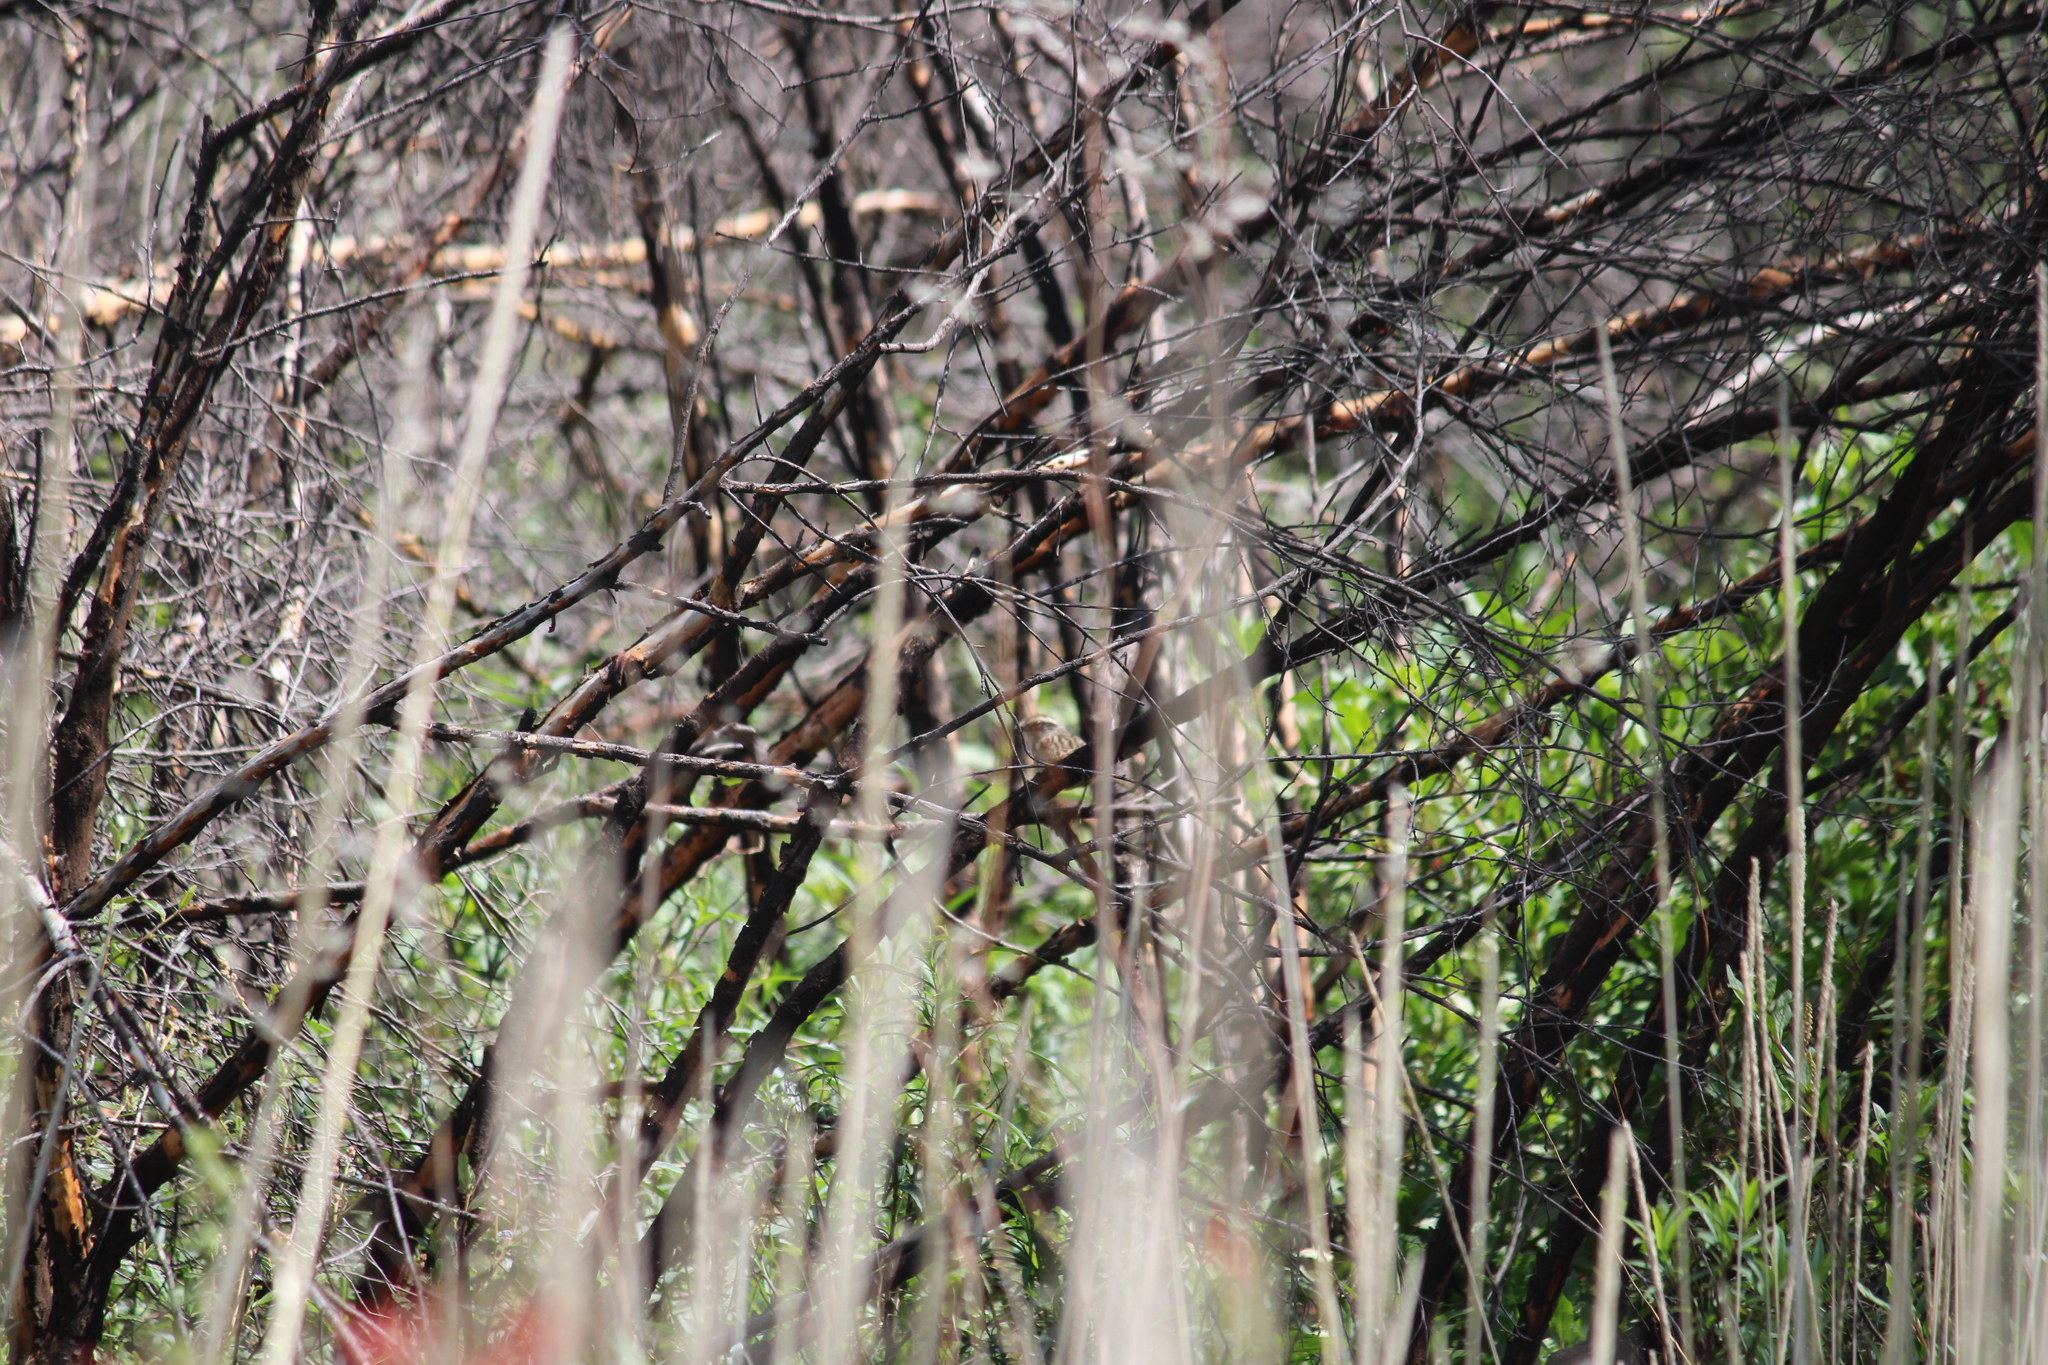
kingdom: Animalia
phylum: Chordata
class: Aves
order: Passeriformes
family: Passerellidae
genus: Oriturus
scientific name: Oriturus superciliosus
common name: Striped sparrow
